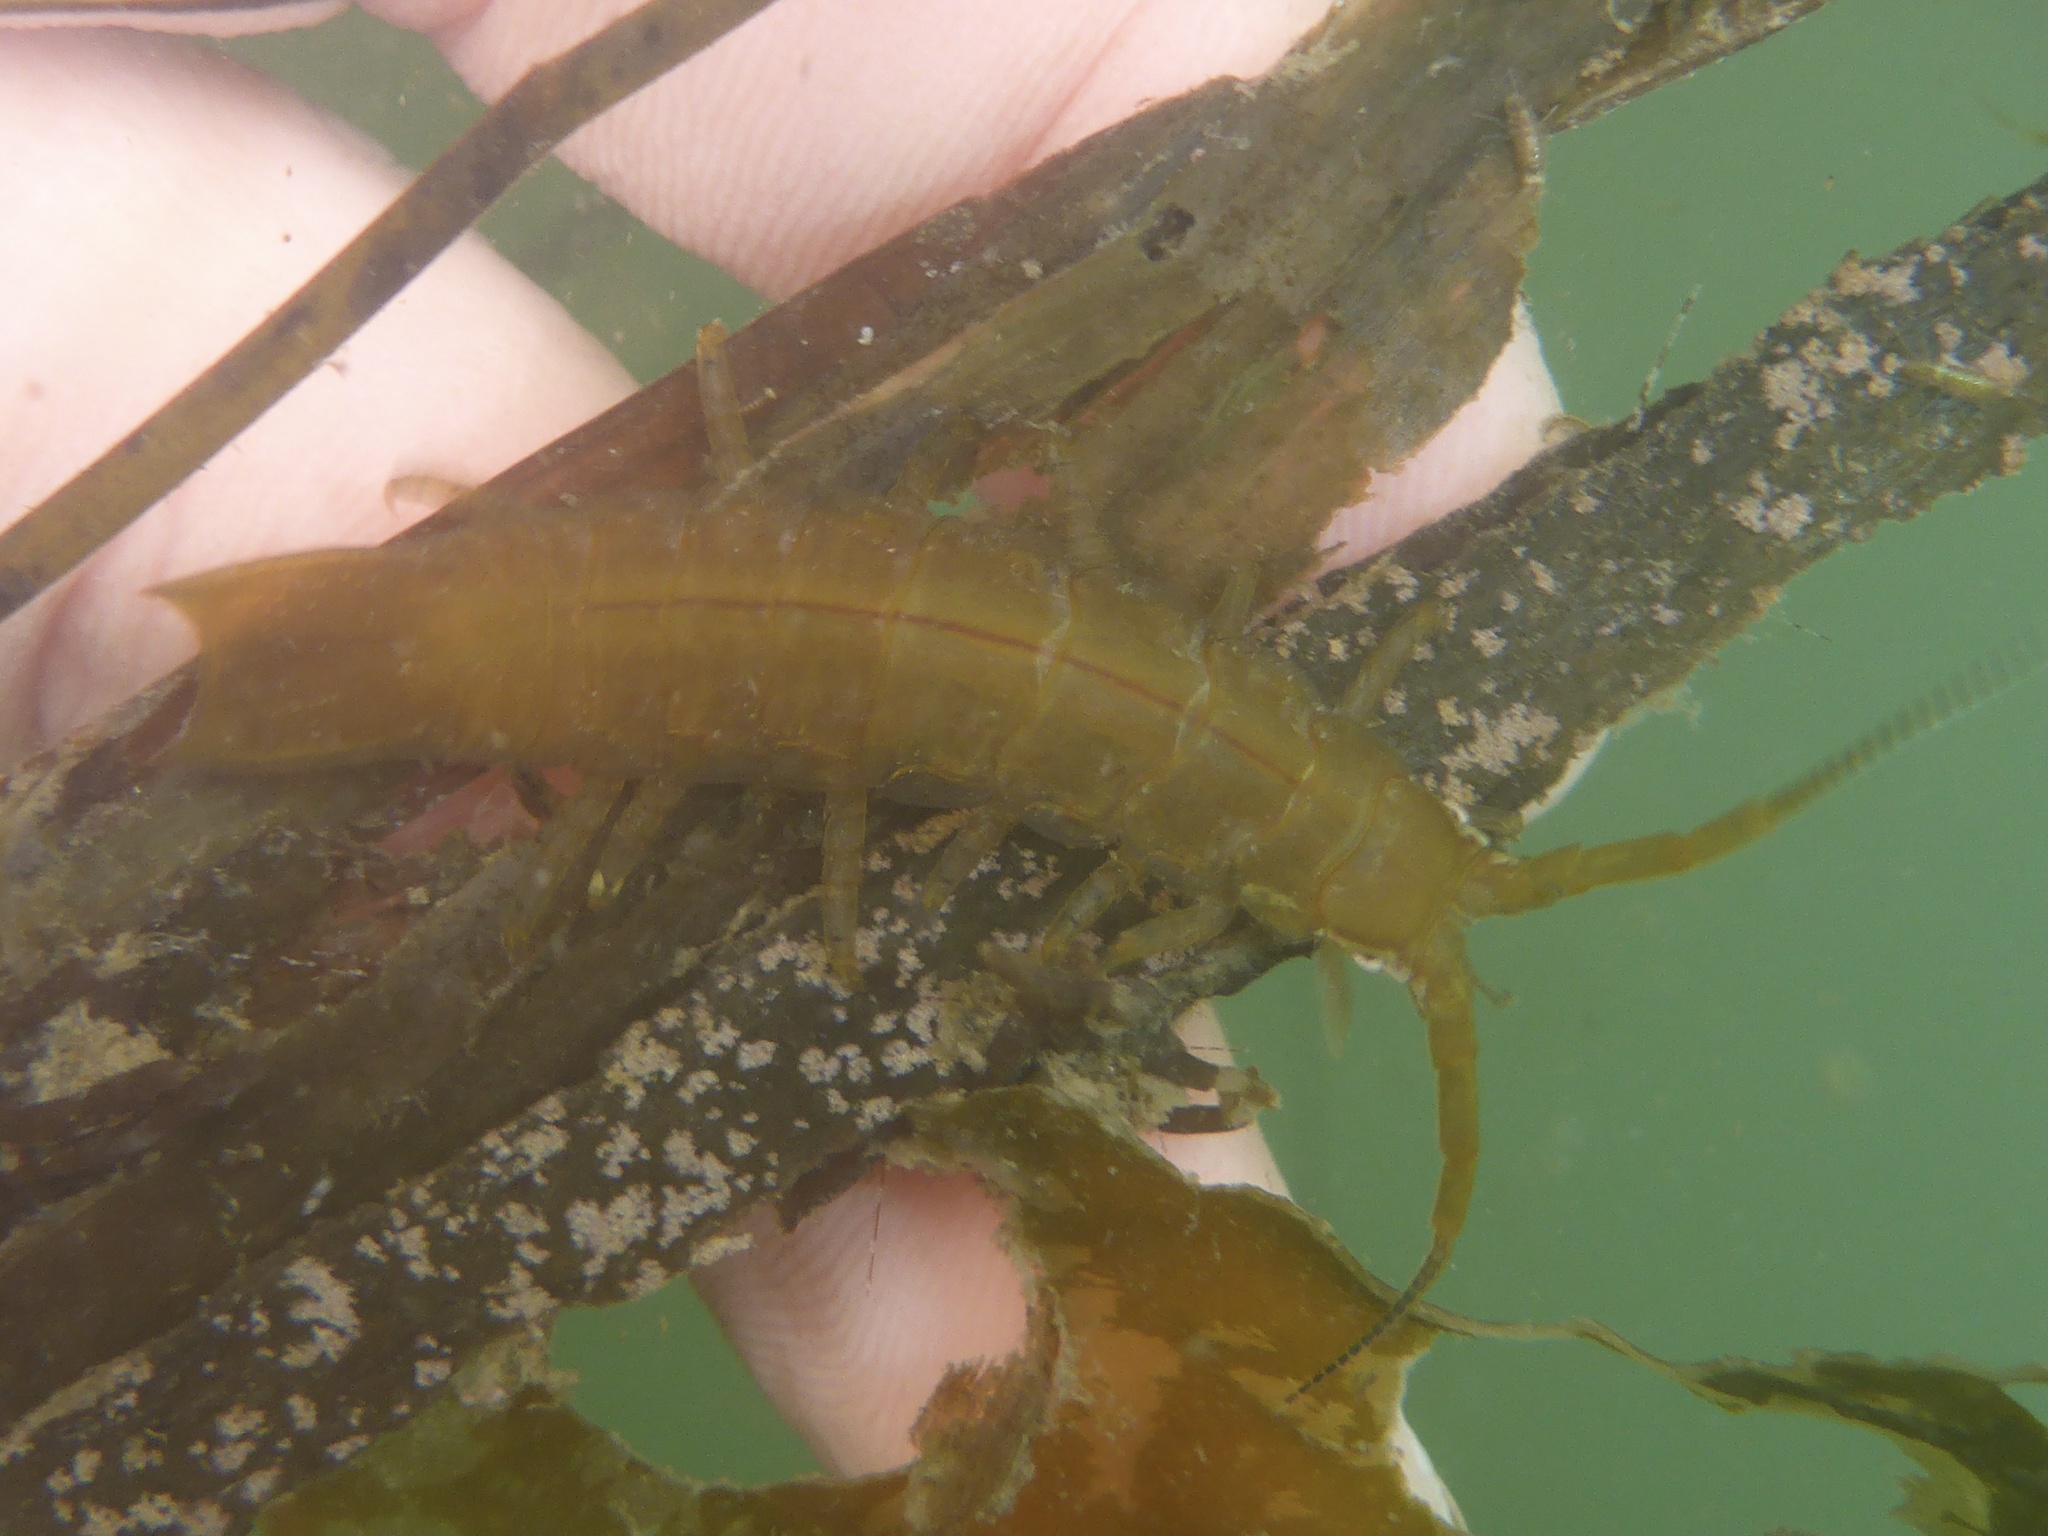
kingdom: Animalia
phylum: Arthropoda
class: Malacostraca
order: Isopoda
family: Idoteidae
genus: Pentidotea
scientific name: Pentidotea resecata
